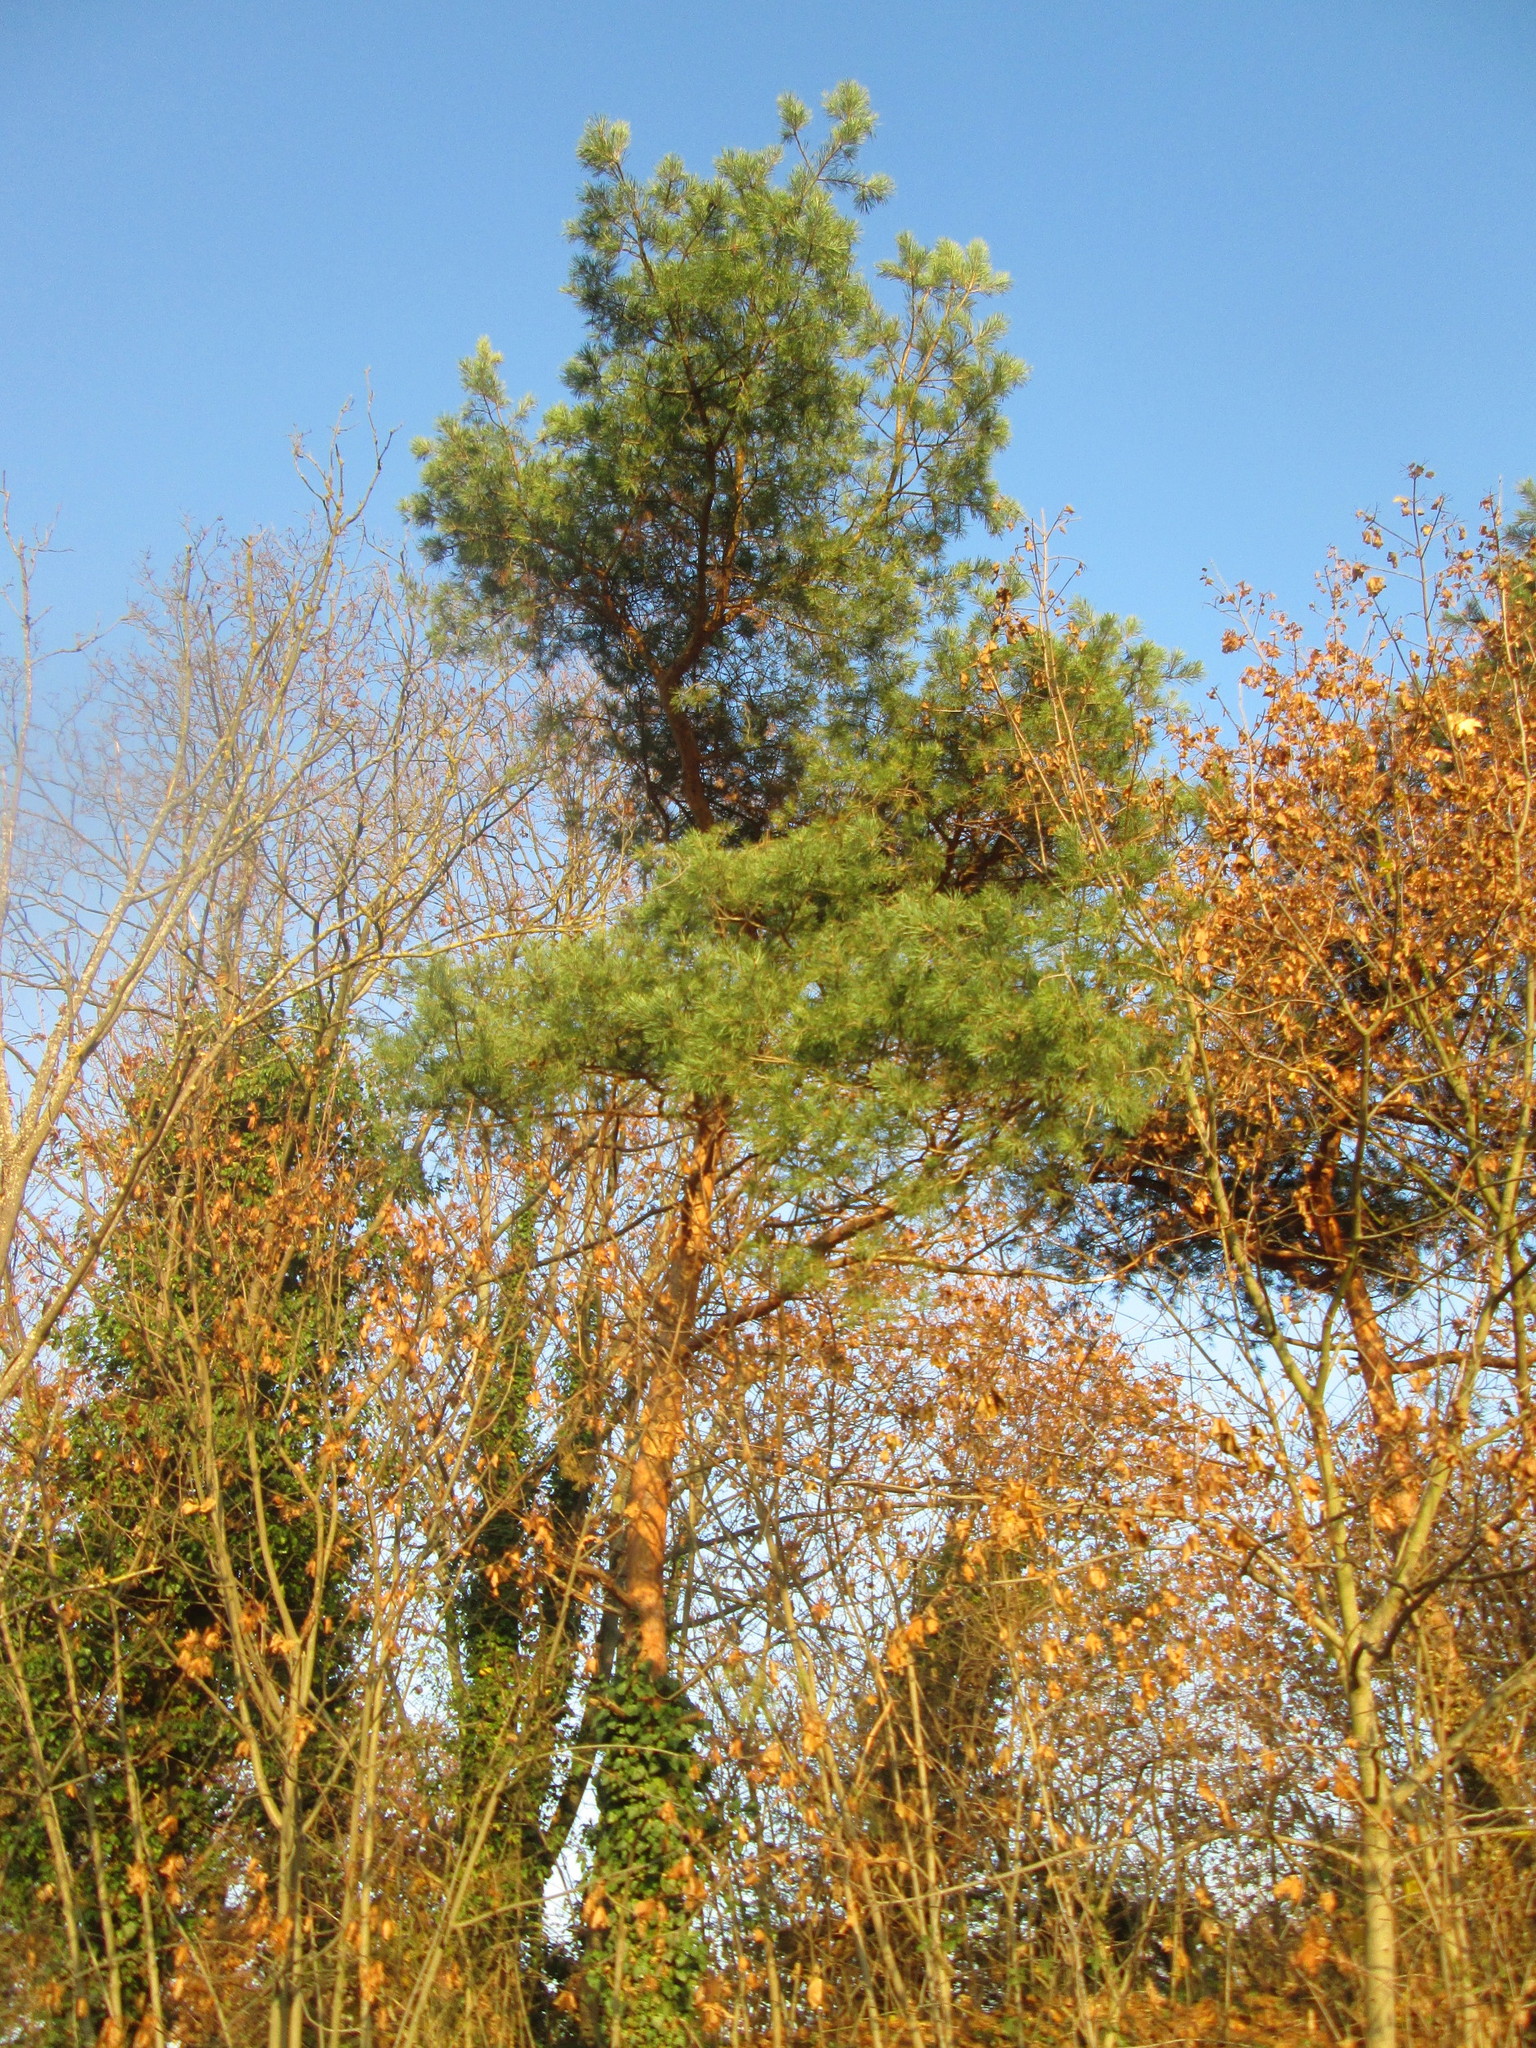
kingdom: Plantae
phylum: Tracheophyta
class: Pinopsida
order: Pinales
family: Pinaceae
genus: Pinus
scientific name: Pinus sylvestris
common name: Scots pine
